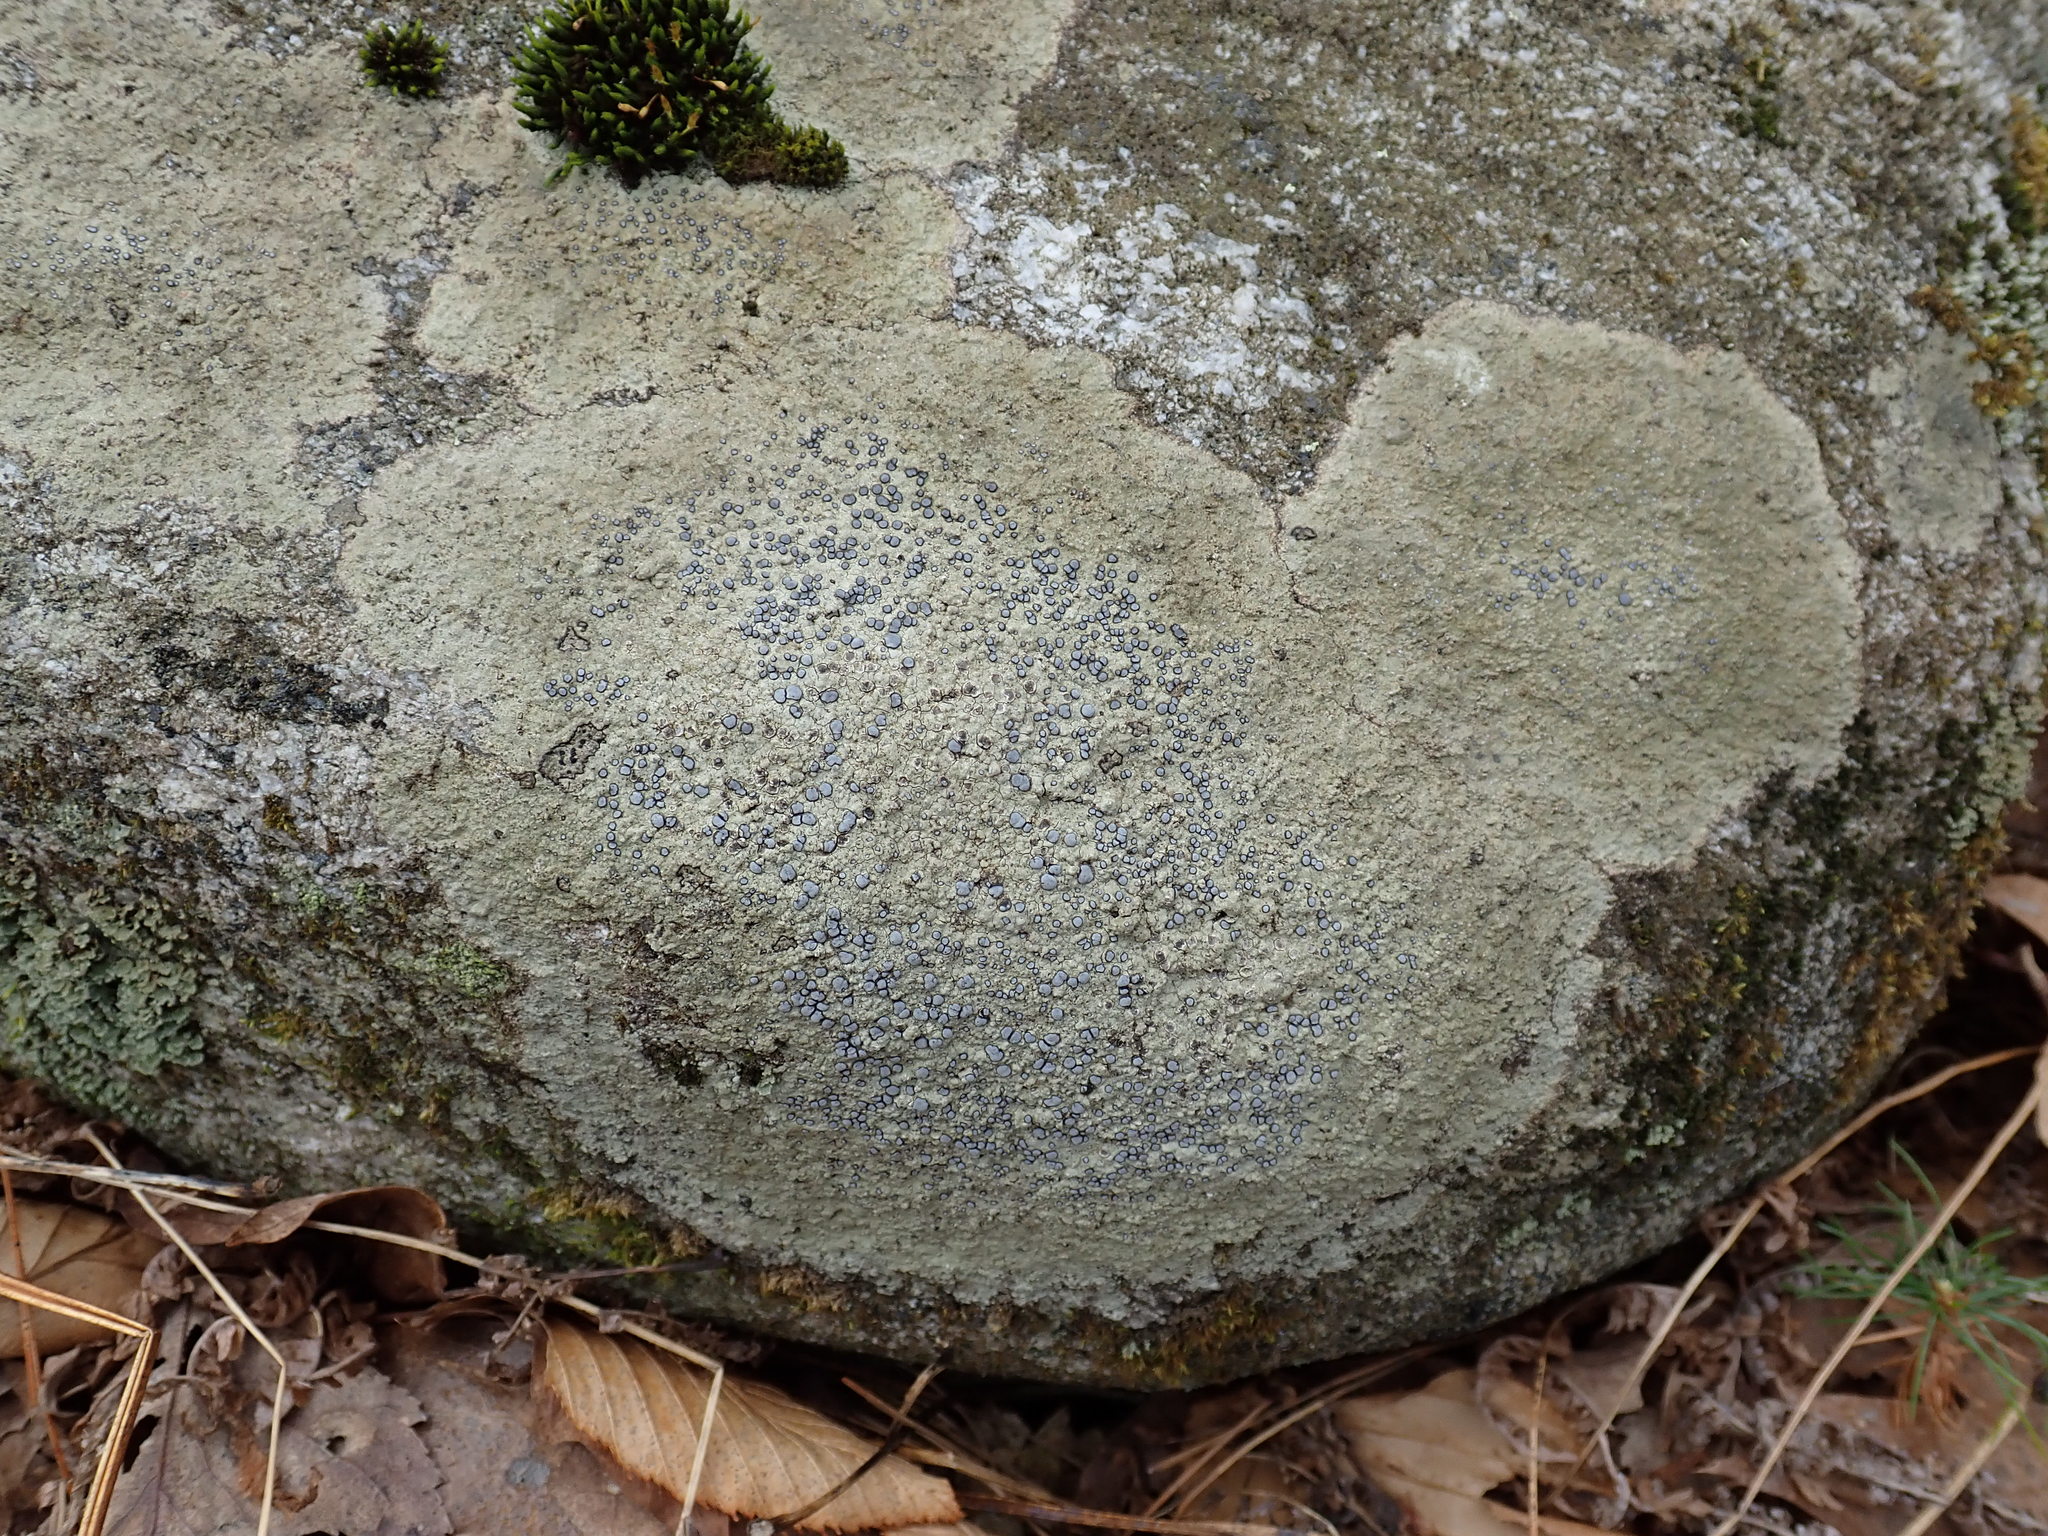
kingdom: Fungi
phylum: Ascomycota
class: Lecanoromycetes
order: Lecideales
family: Lecideaceae
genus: Porpidia
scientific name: Porpidia albocaerulescens
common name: Smokey-eyed boulder lichen
